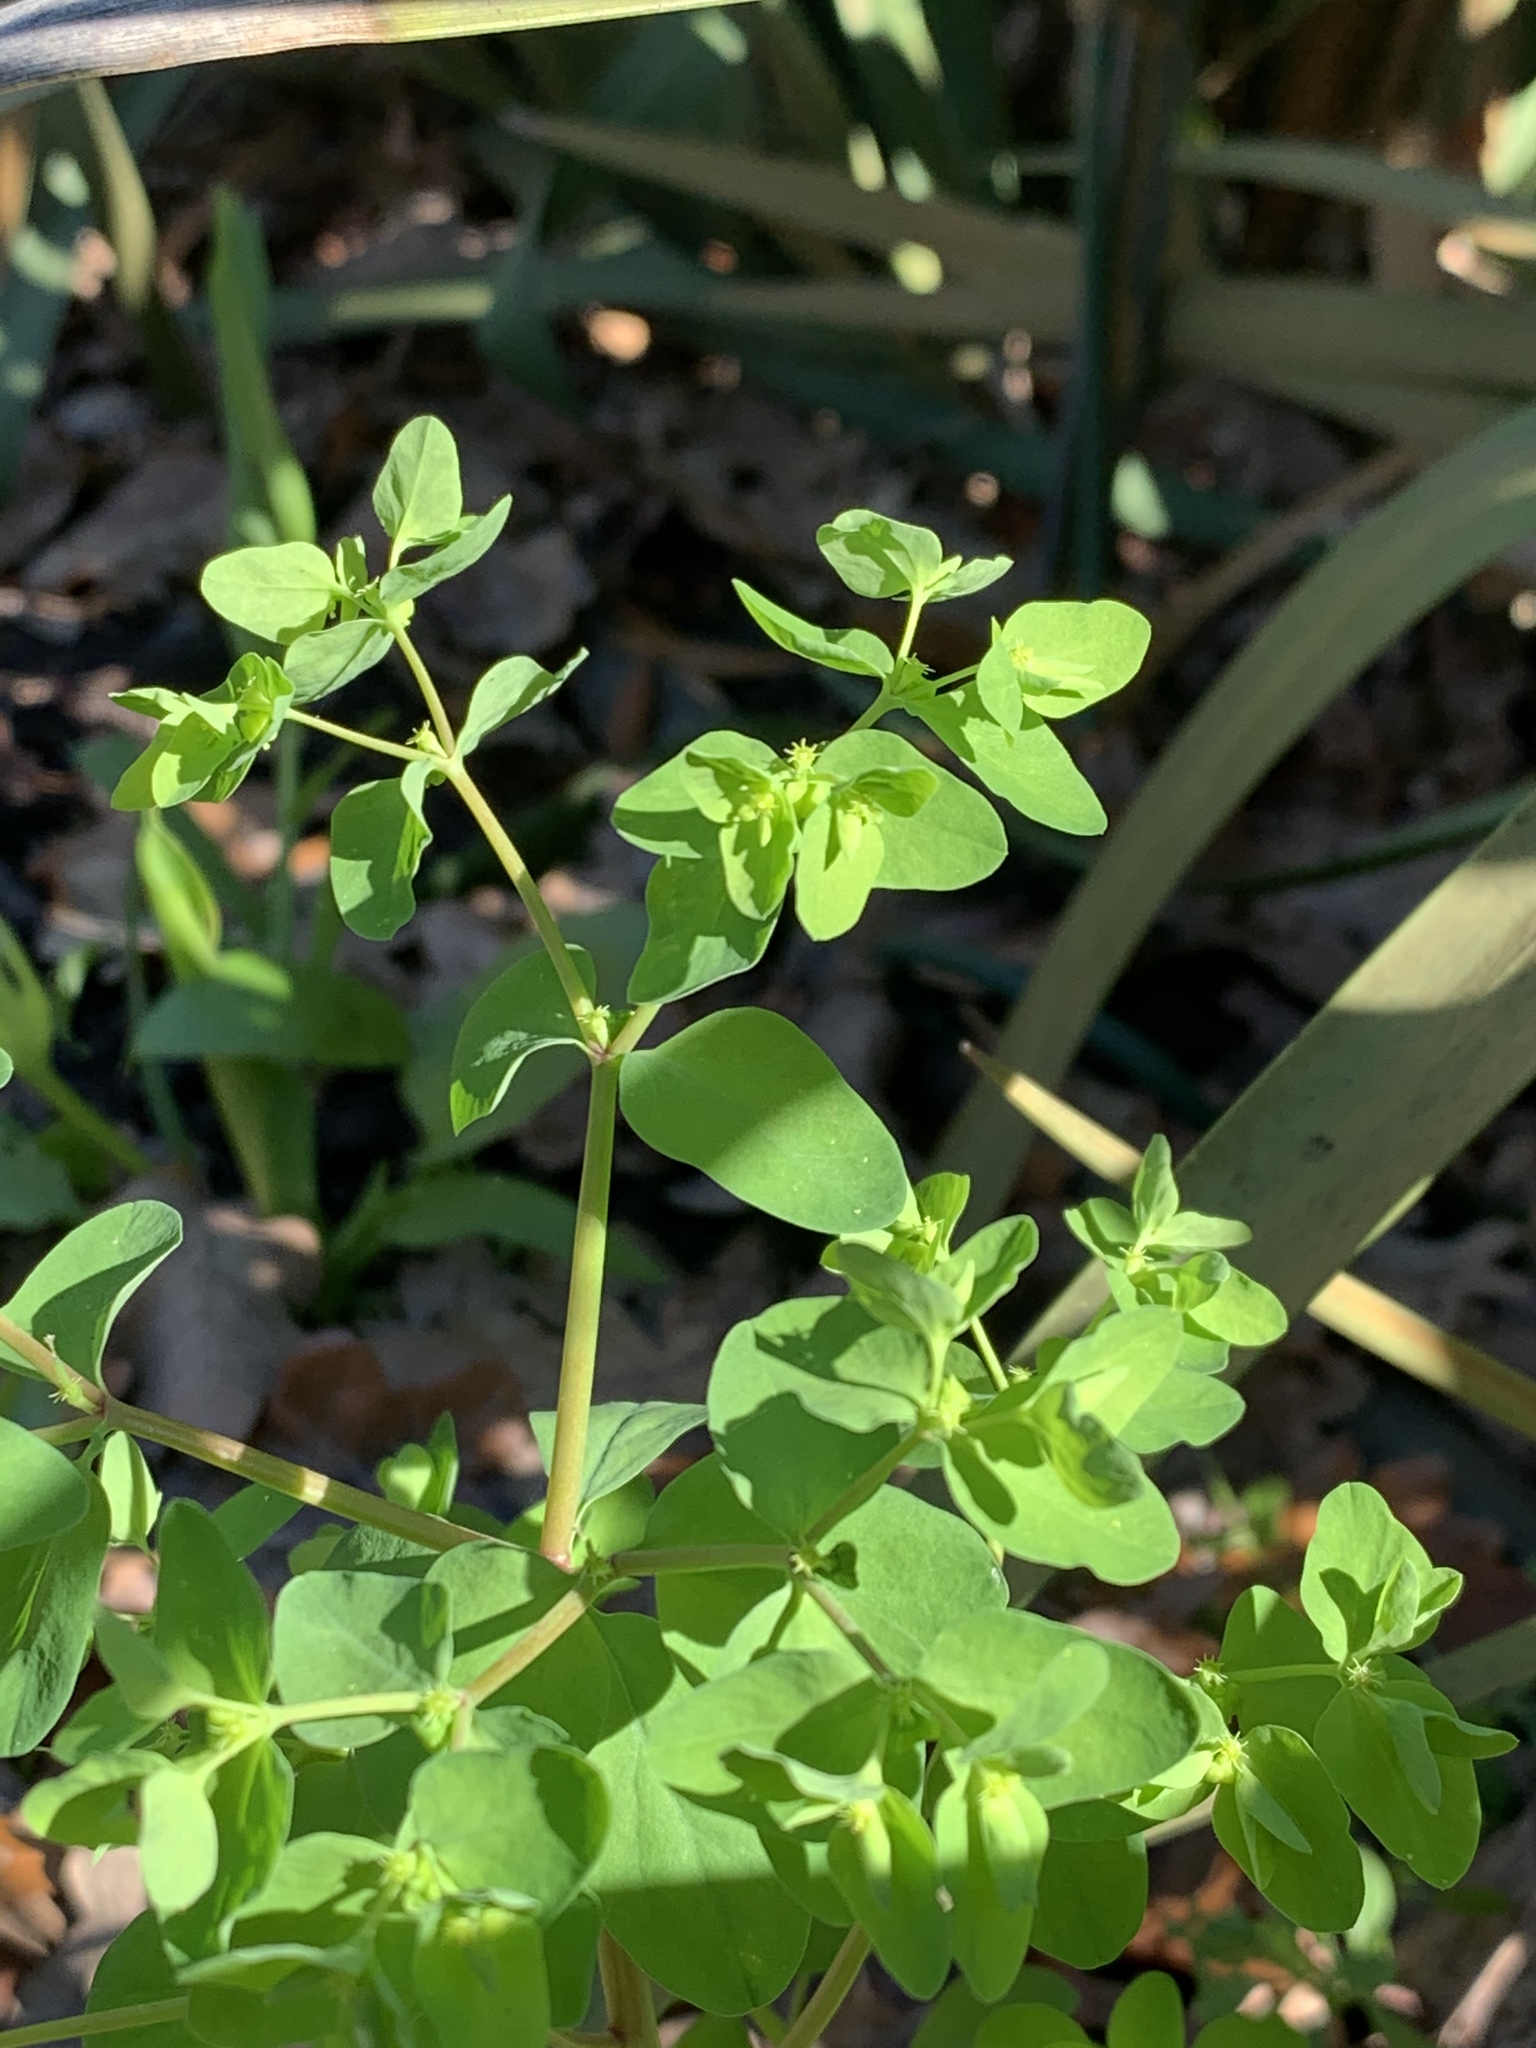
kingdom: Plantae
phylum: Tracheophyta
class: Magnoliopsida
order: Malpighiales
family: Euphorbiaceae
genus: Euphorbia
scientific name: Euphorbia peplus
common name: Petty spurge
